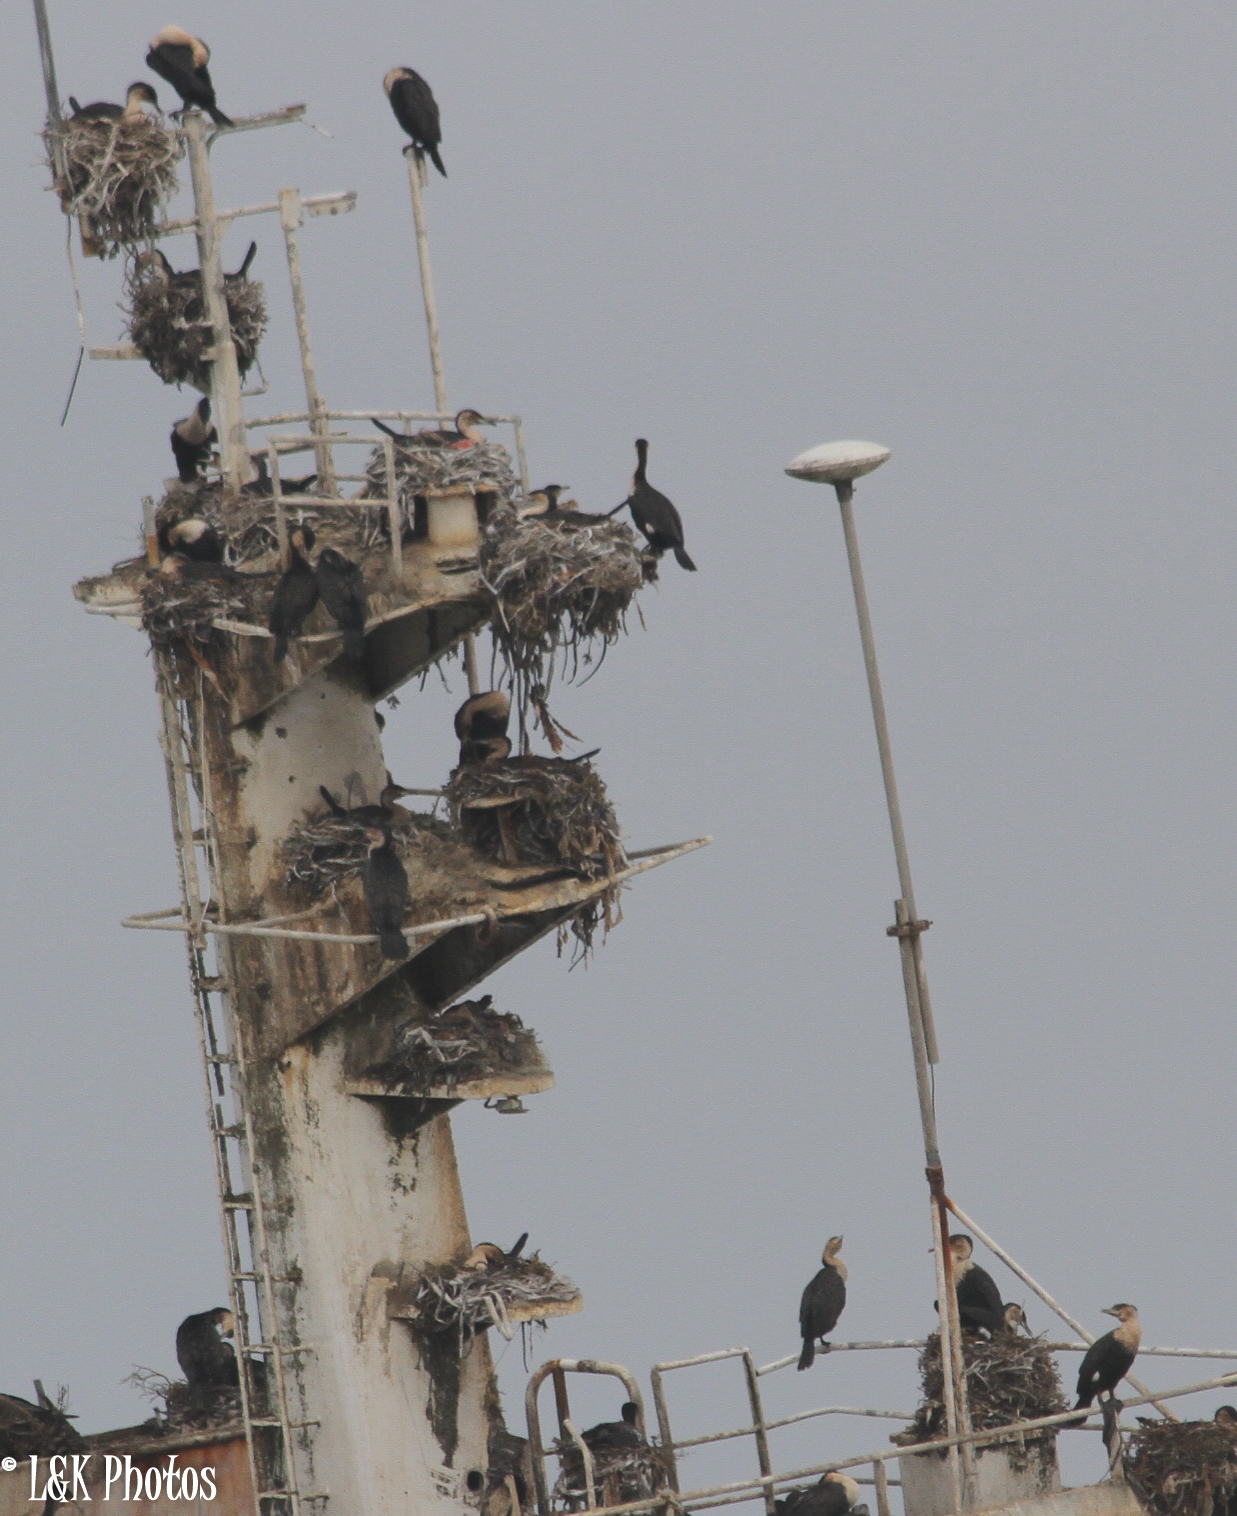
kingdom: Animalia
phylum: Chordata
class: Aves
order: Suliformes
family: Phalacrocoracidae
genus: Phalacrocorax
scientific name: Phalacrocorax carbo
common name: Great cormorant
